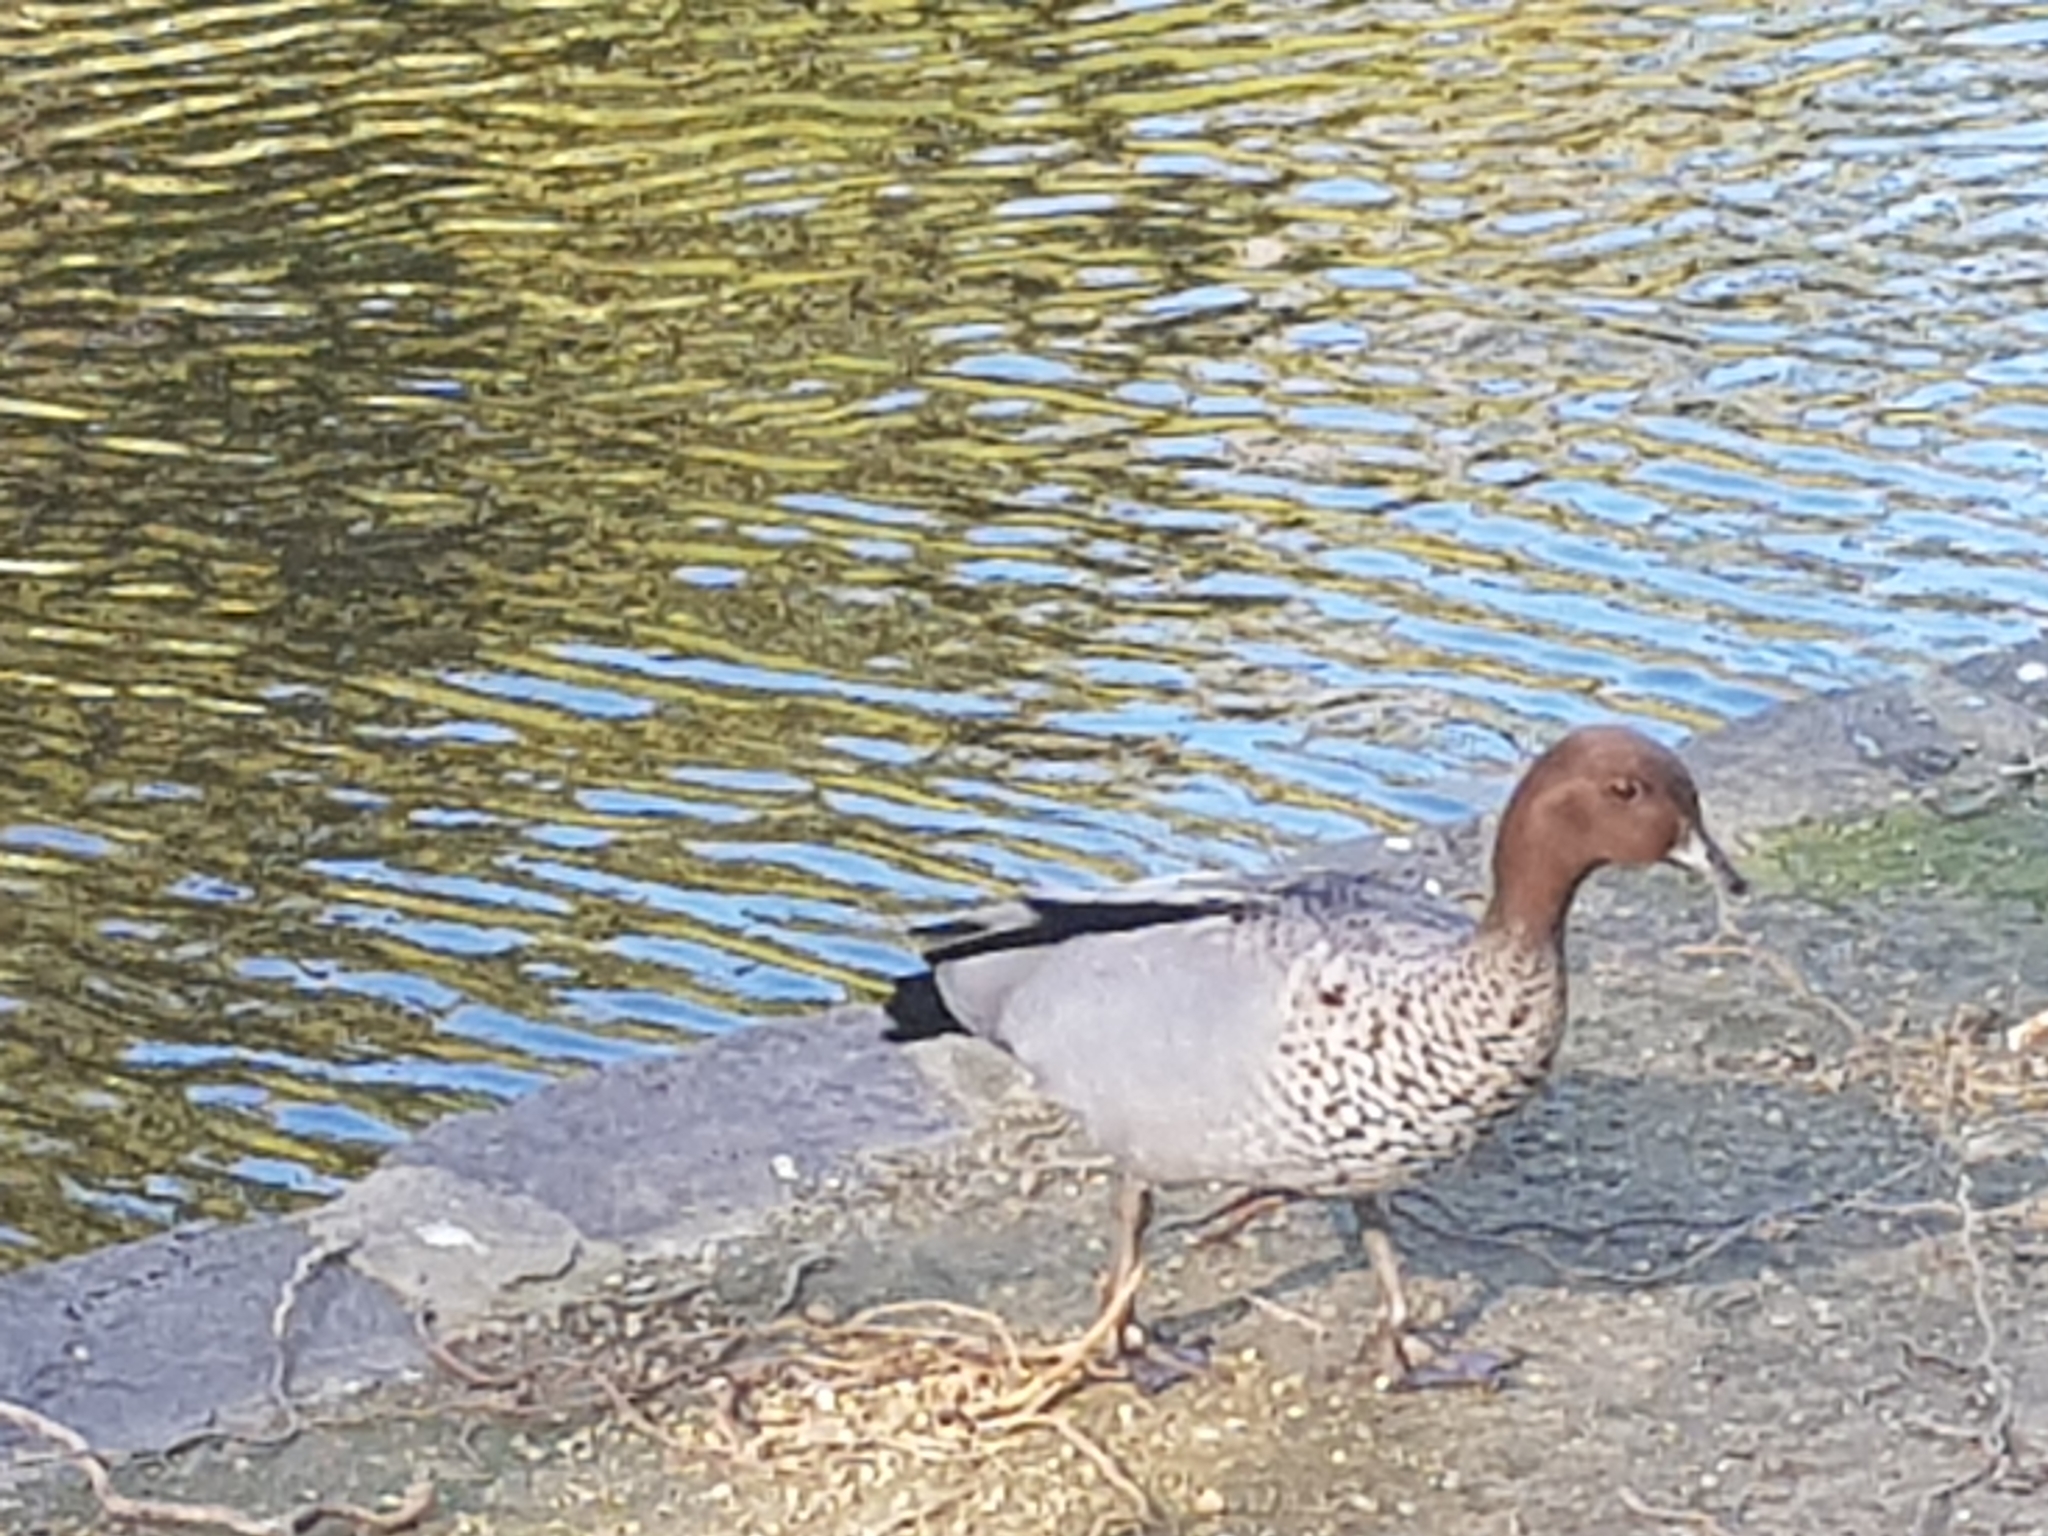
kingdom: Animalia
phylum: Chordata
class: Aves
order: Anseriformes
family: Anatidae
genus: Chenonetta
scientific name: Chenonetta jubata
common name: Maned duck
